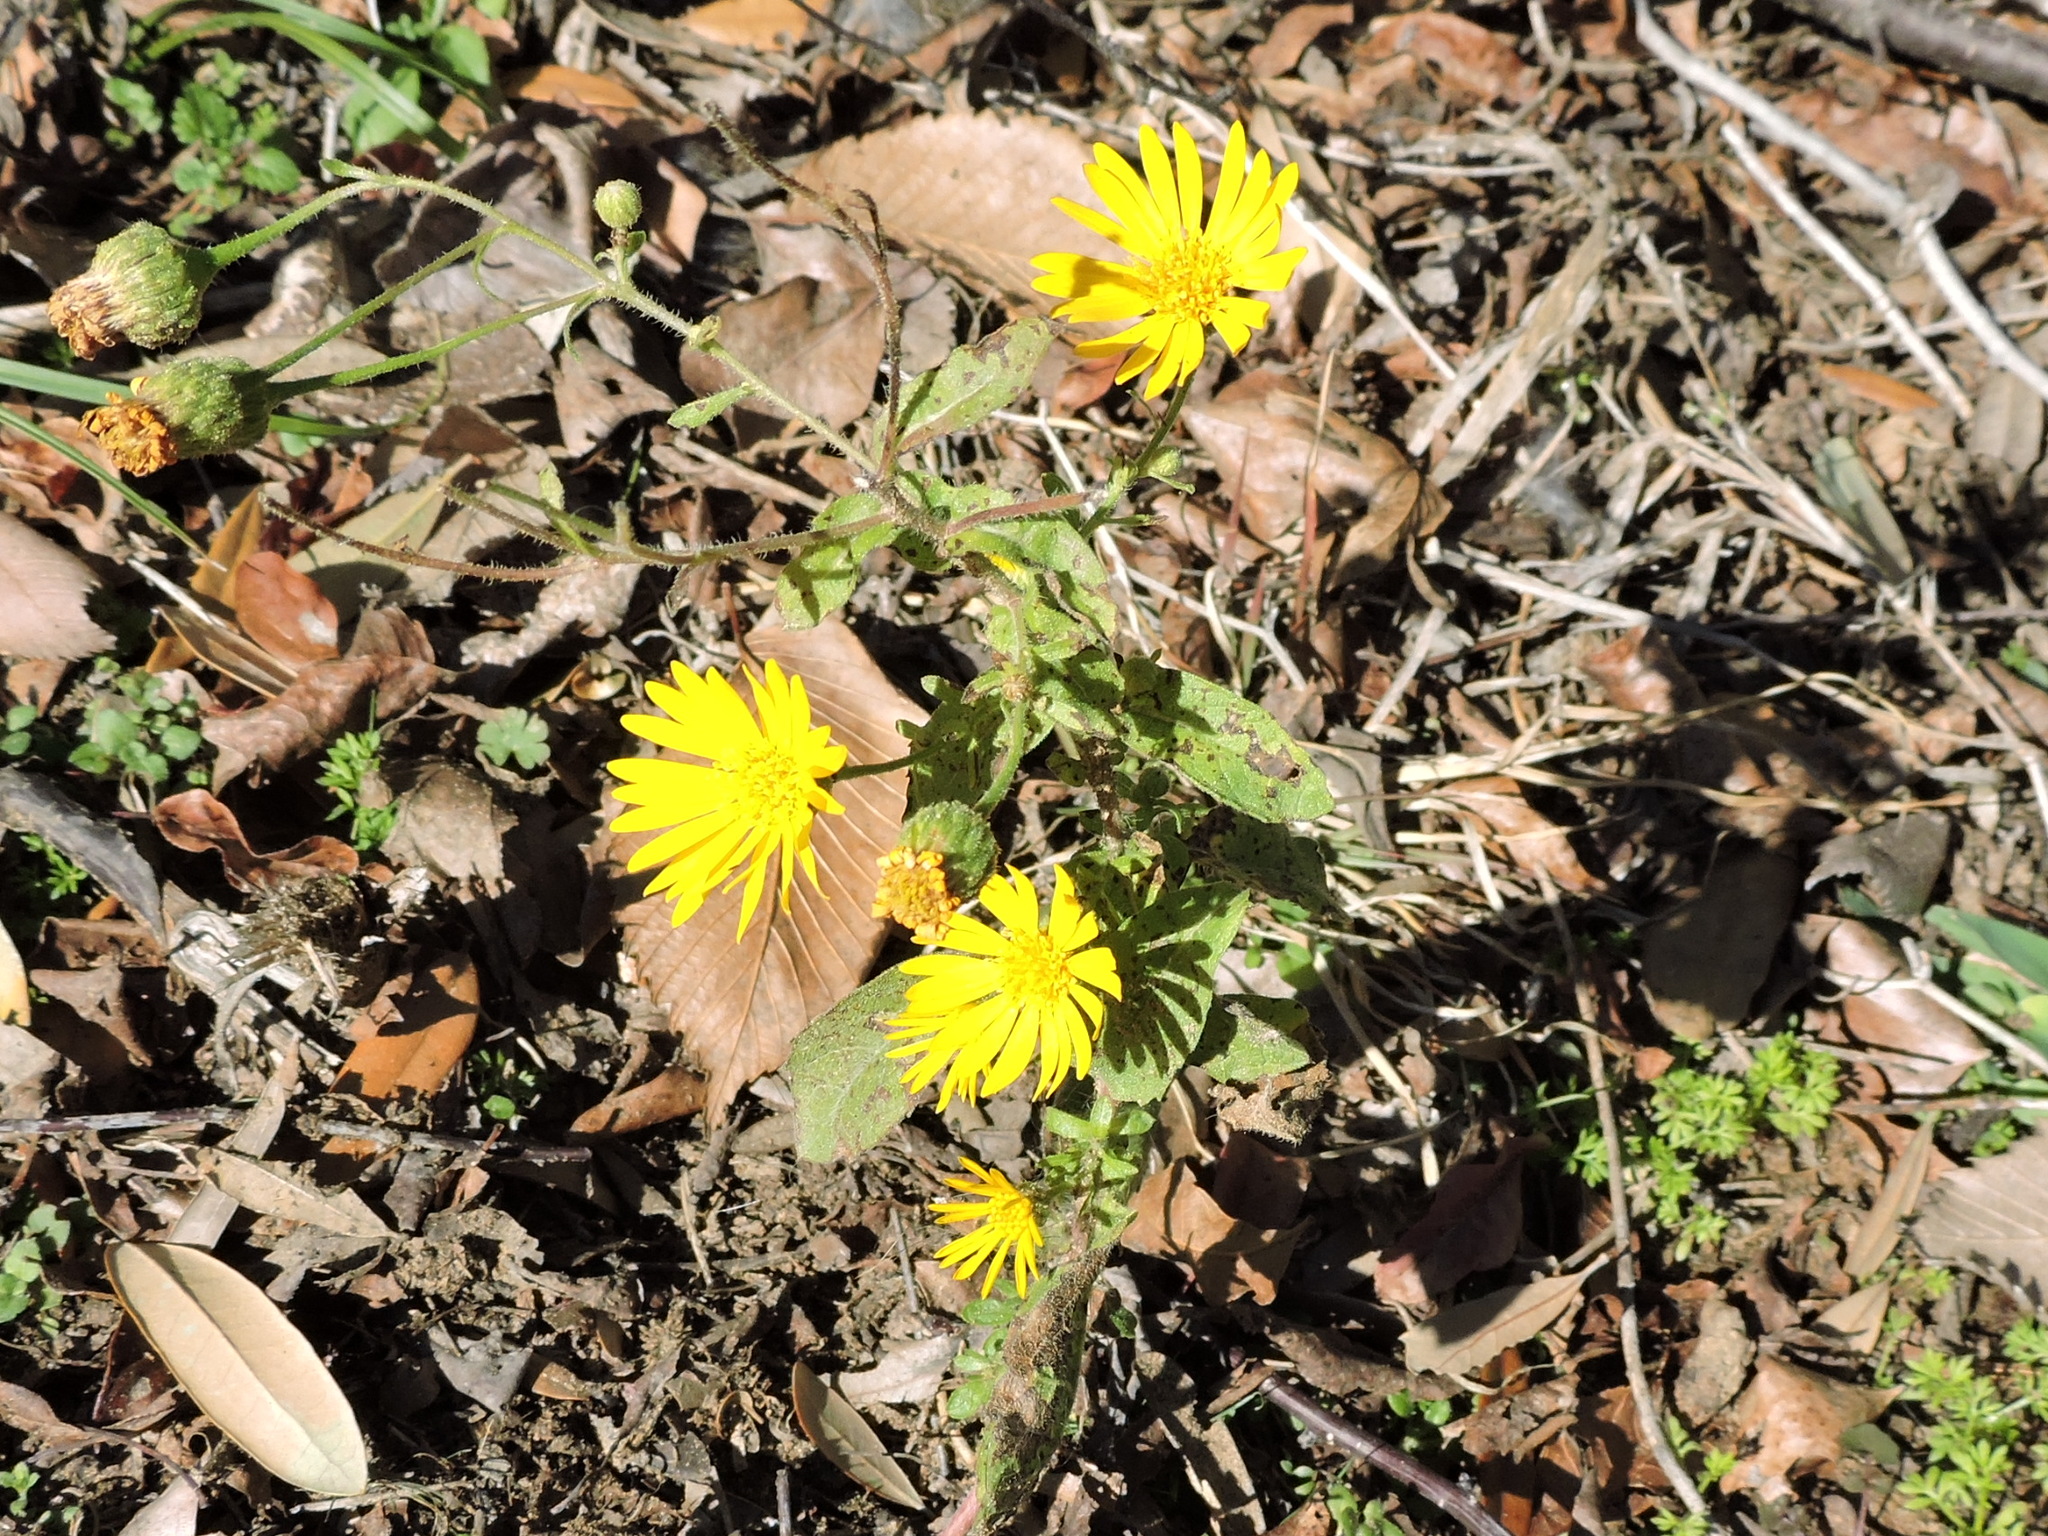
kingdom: Plantae
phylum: Tracheophyta
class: Magnoliopsida
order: Asterales
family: Asteraceae
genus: Heterotheca
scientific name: Heterotheca subaxillaris
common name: Camphorweed
